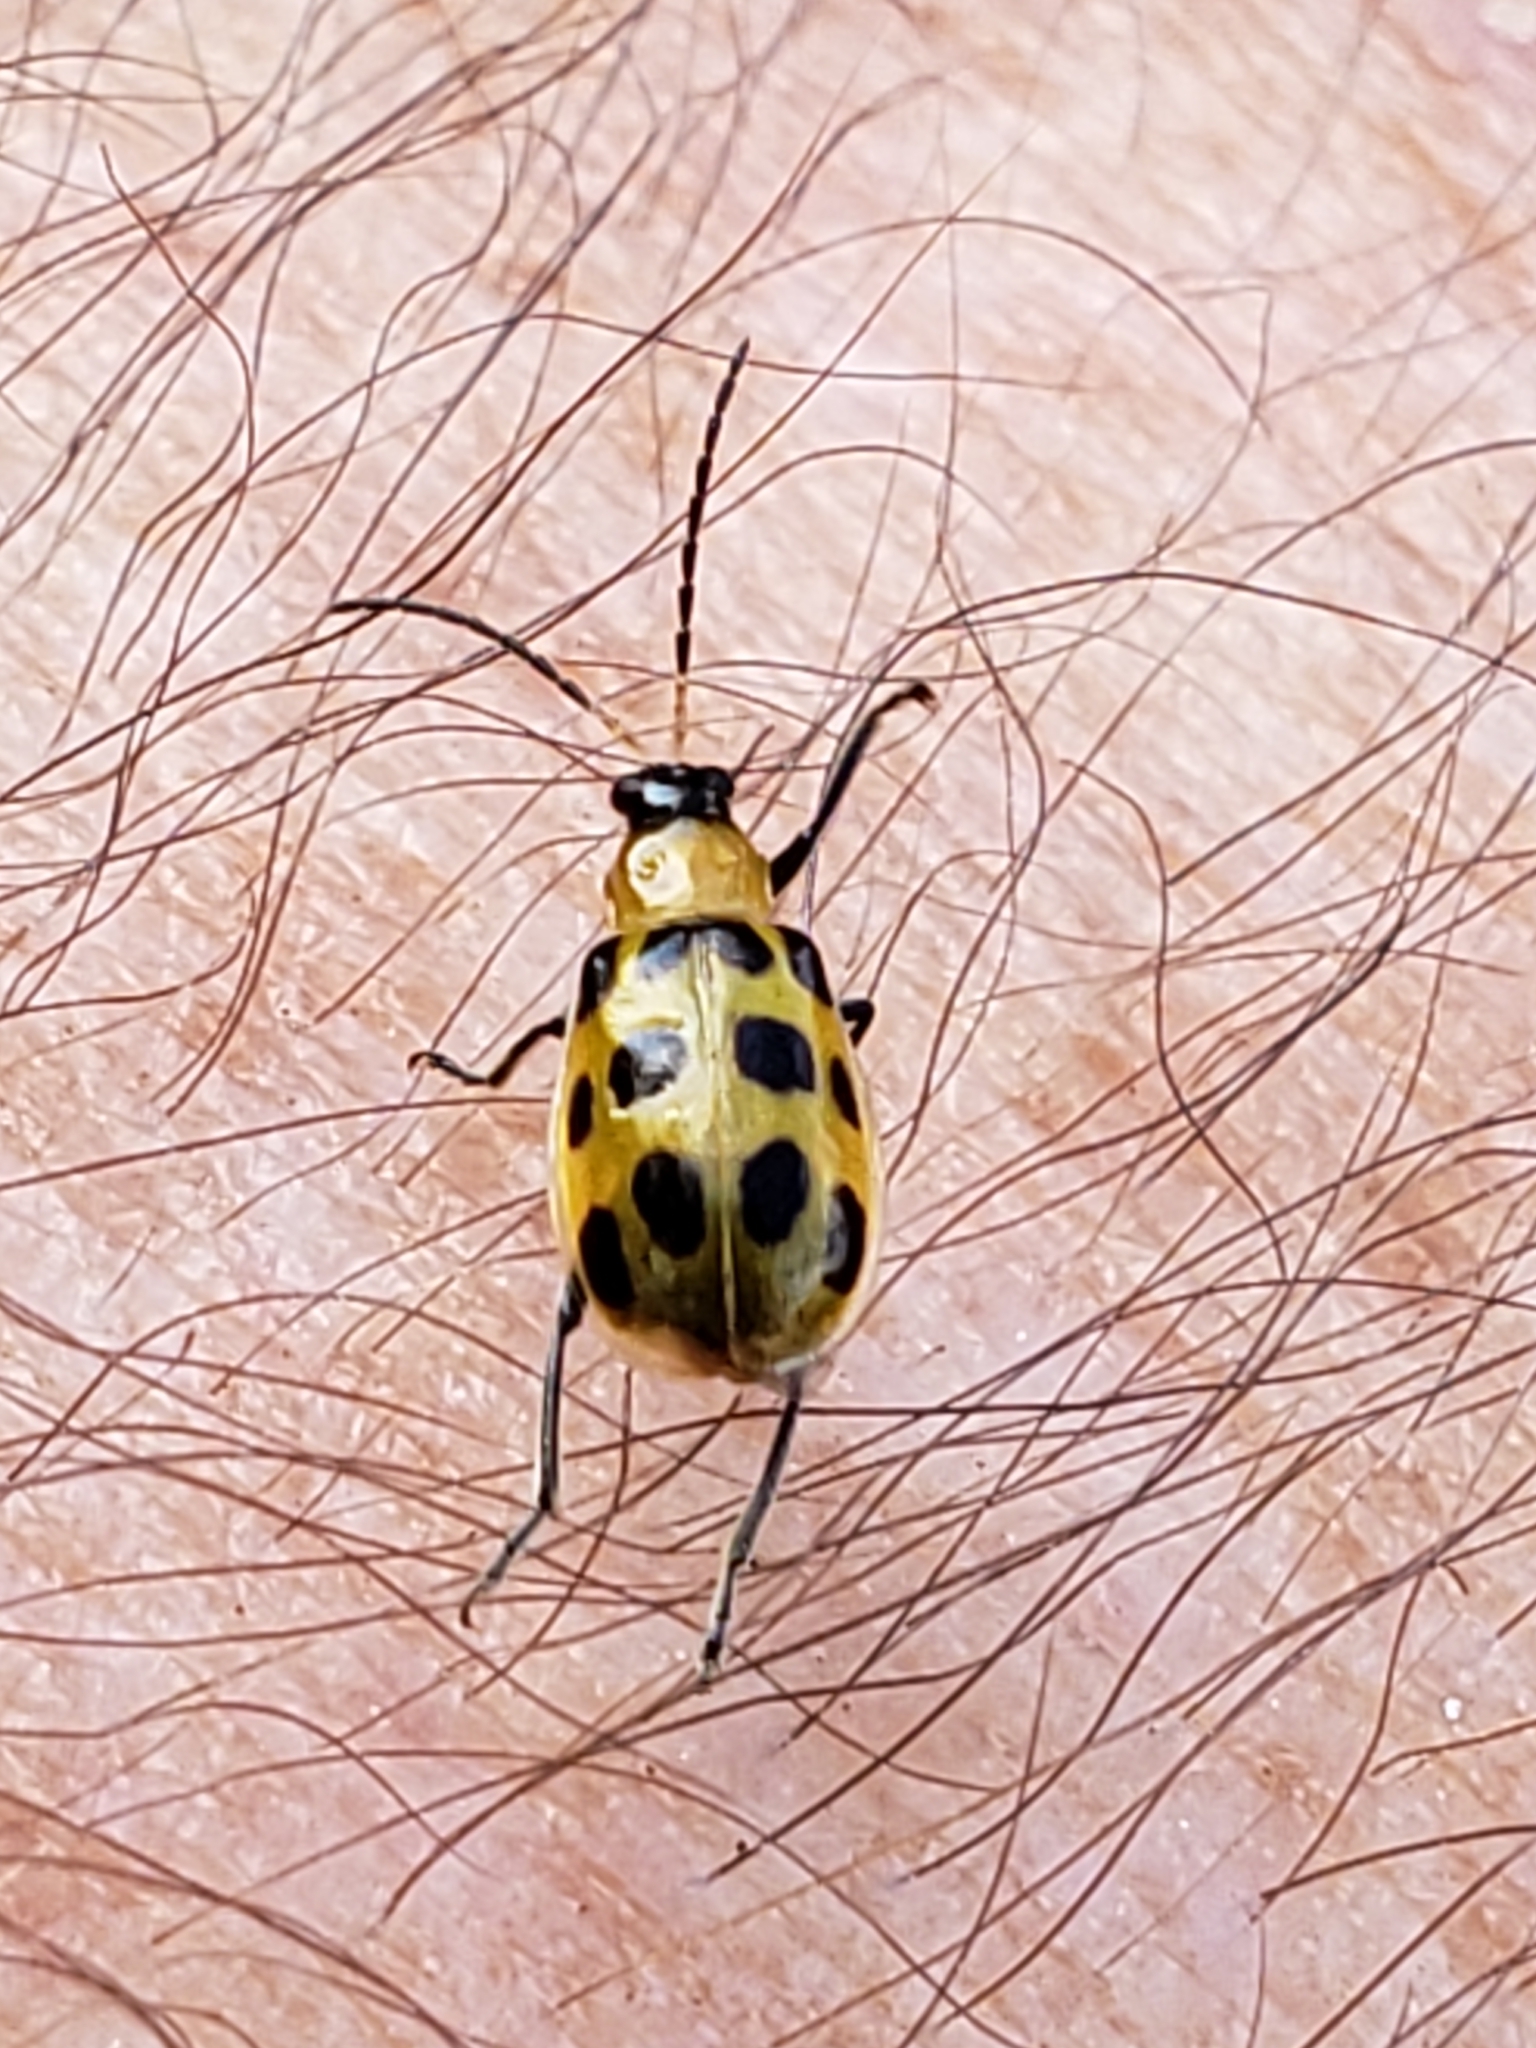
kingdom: Animalia
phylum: Arthropoda
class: Insecta
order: Coleoptera
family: Chrysomelidae
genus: Diabrotica
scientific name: Diabrotica undecimpunctata
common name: Spotted cucumber beetle
